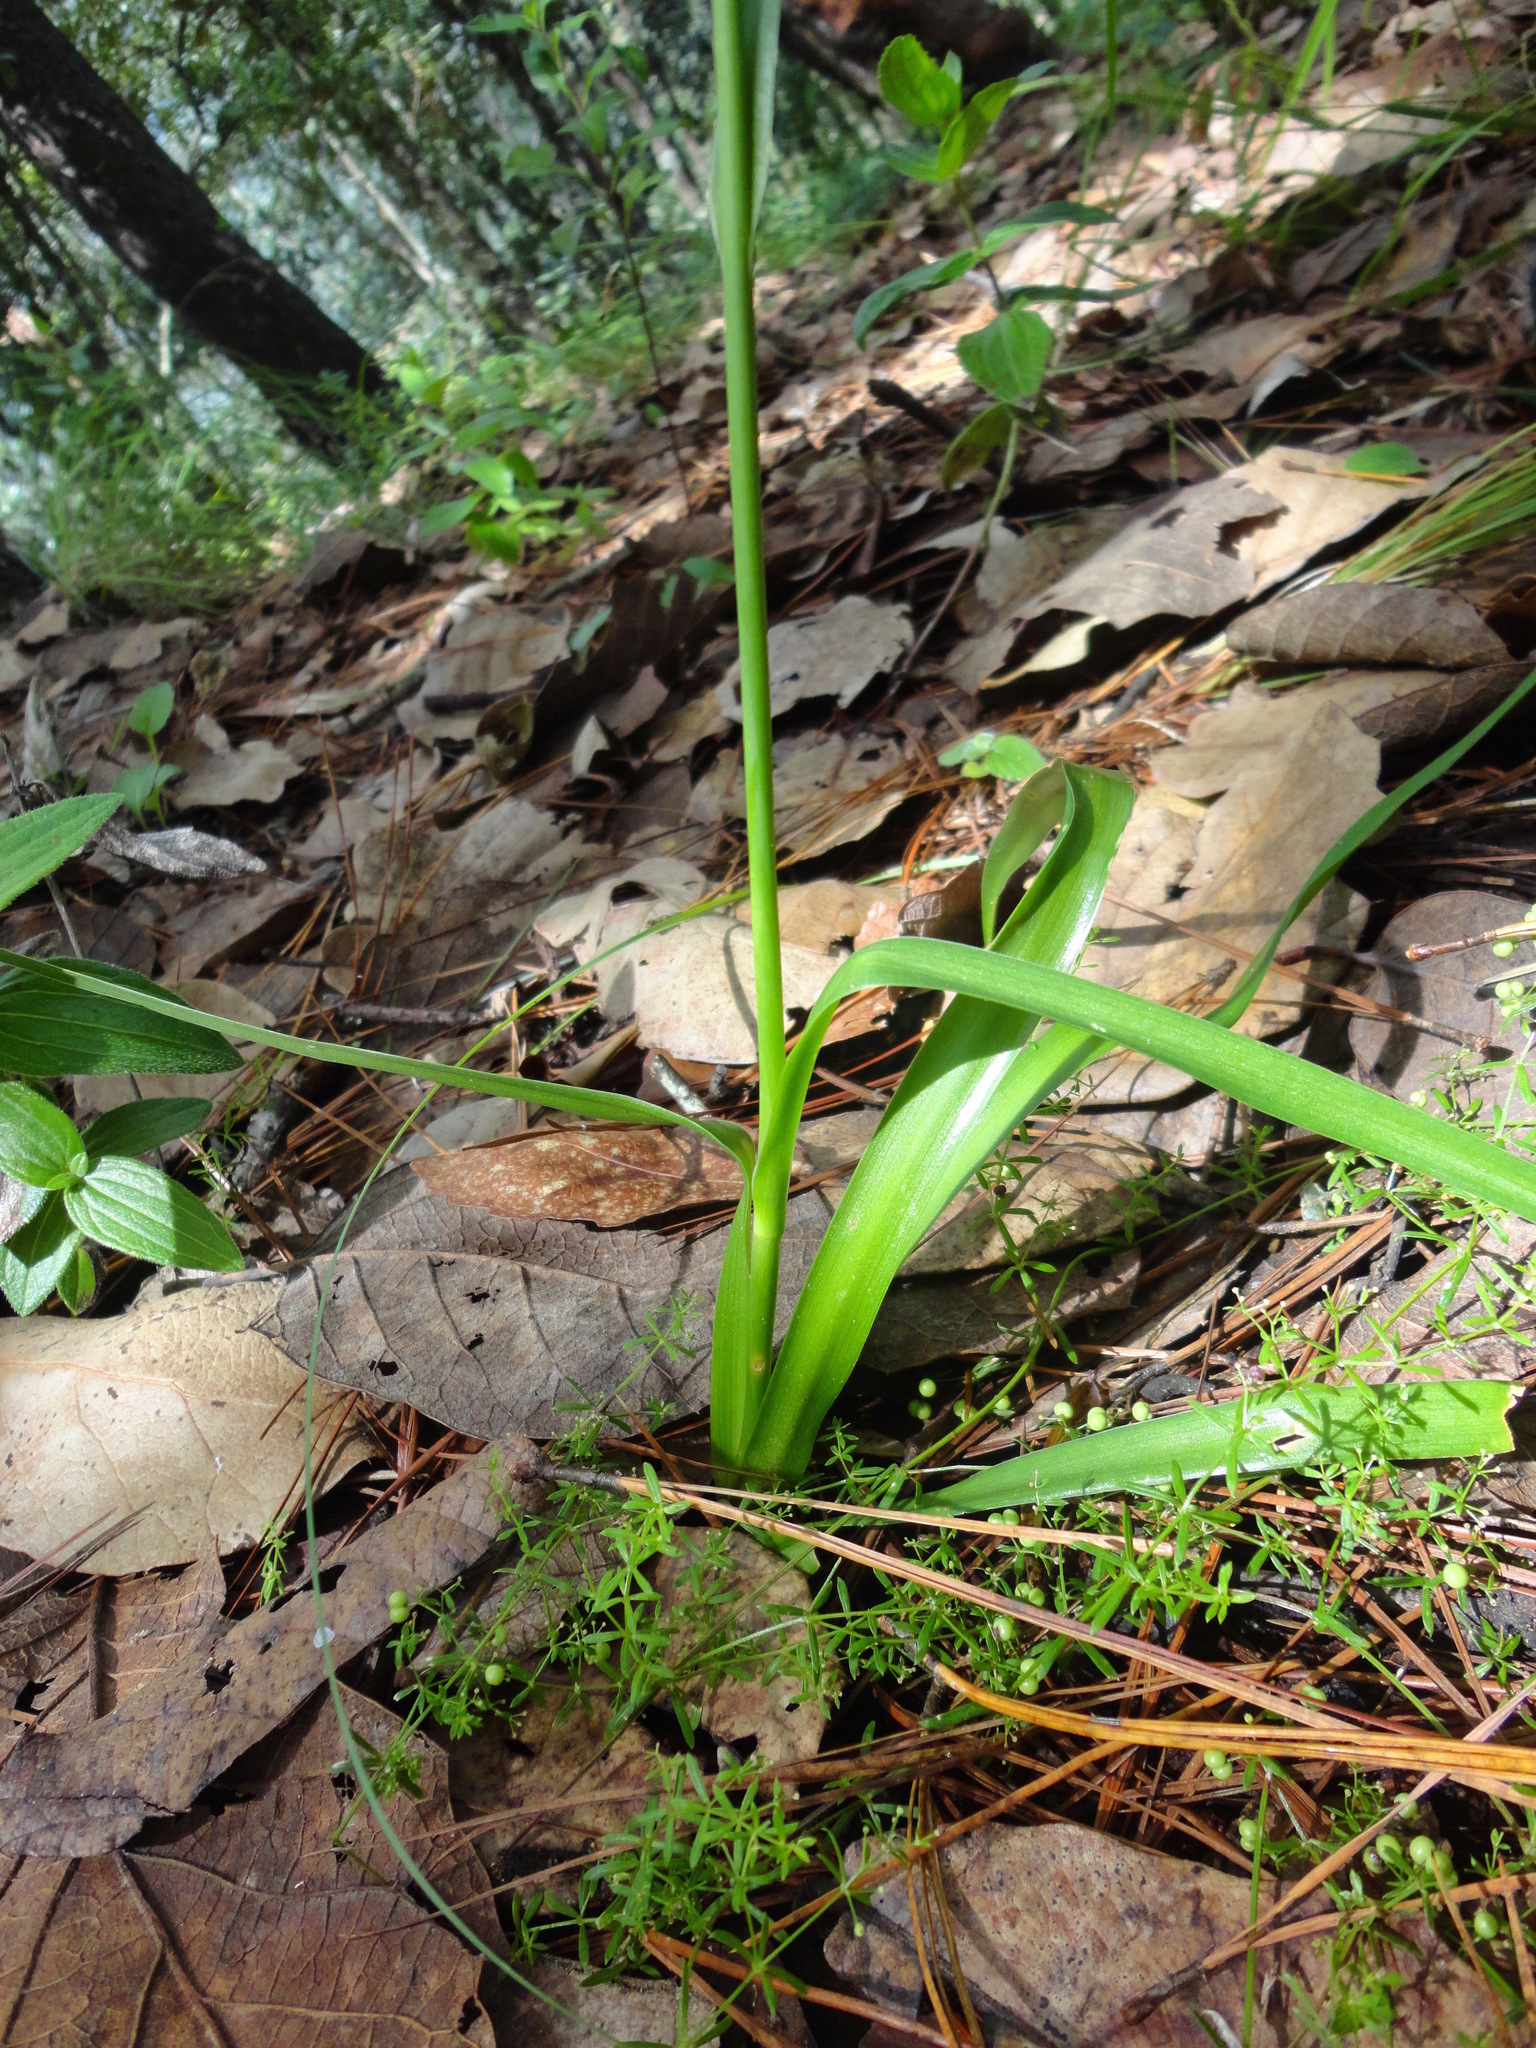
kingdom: Plantae
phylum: Tracheophyta
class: Liliopsida
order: Asparagales
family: Asparagaceae
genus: Agave
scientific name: Agave verhoekiae
